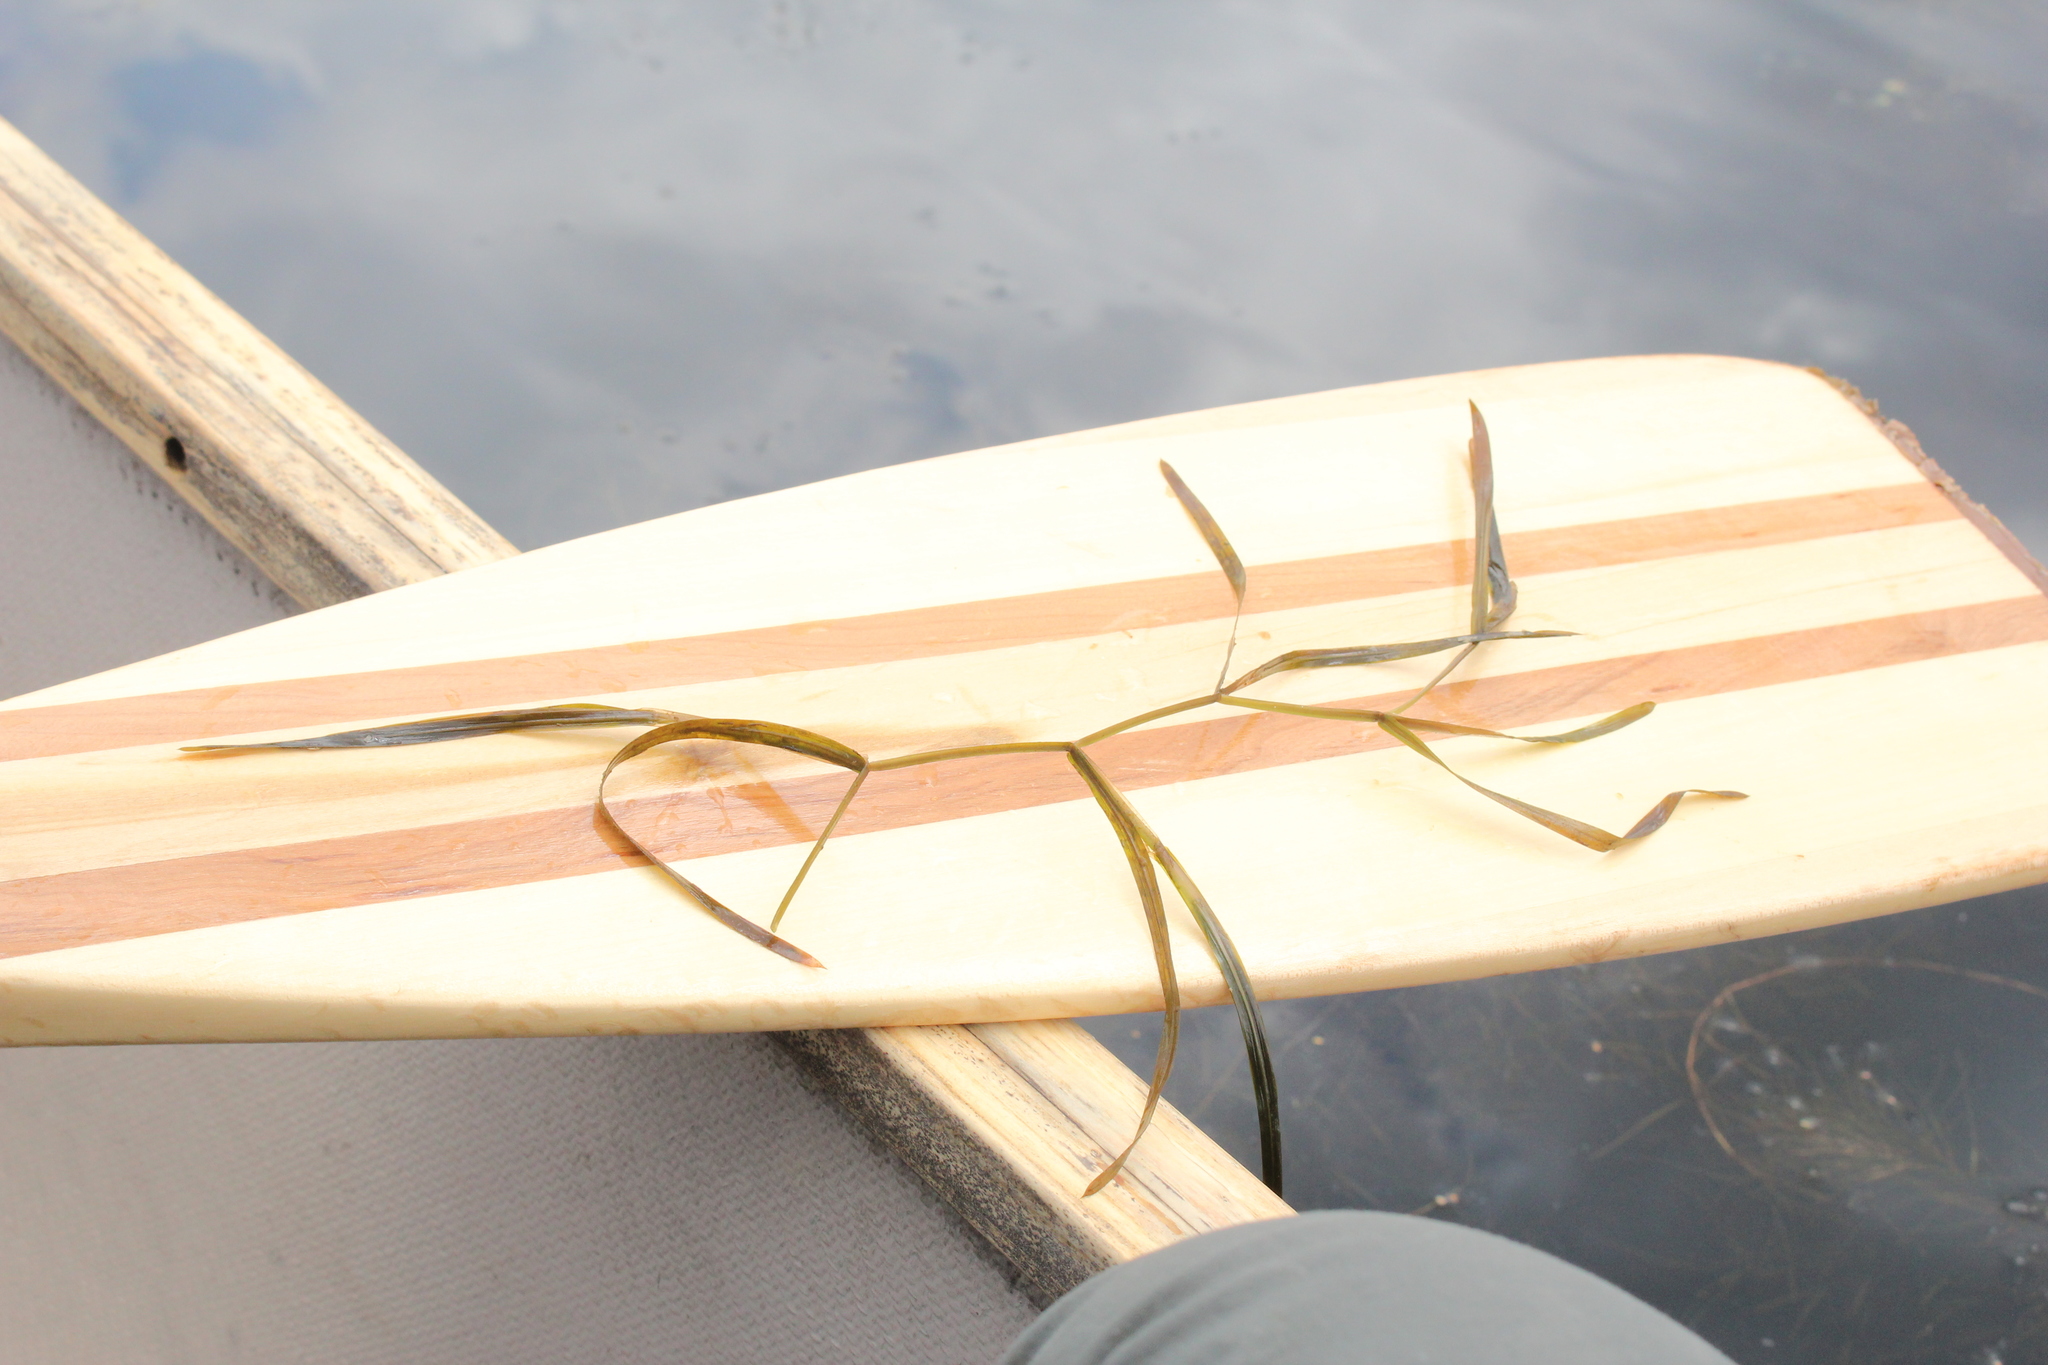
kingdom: Plantae
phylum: Tracheophyta
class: Liliopsida
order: Alismatales
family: Potamogetonaceae
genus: Potamogeton
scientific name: Potamogeton zosteriformis
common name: Eelgrass pondweed
